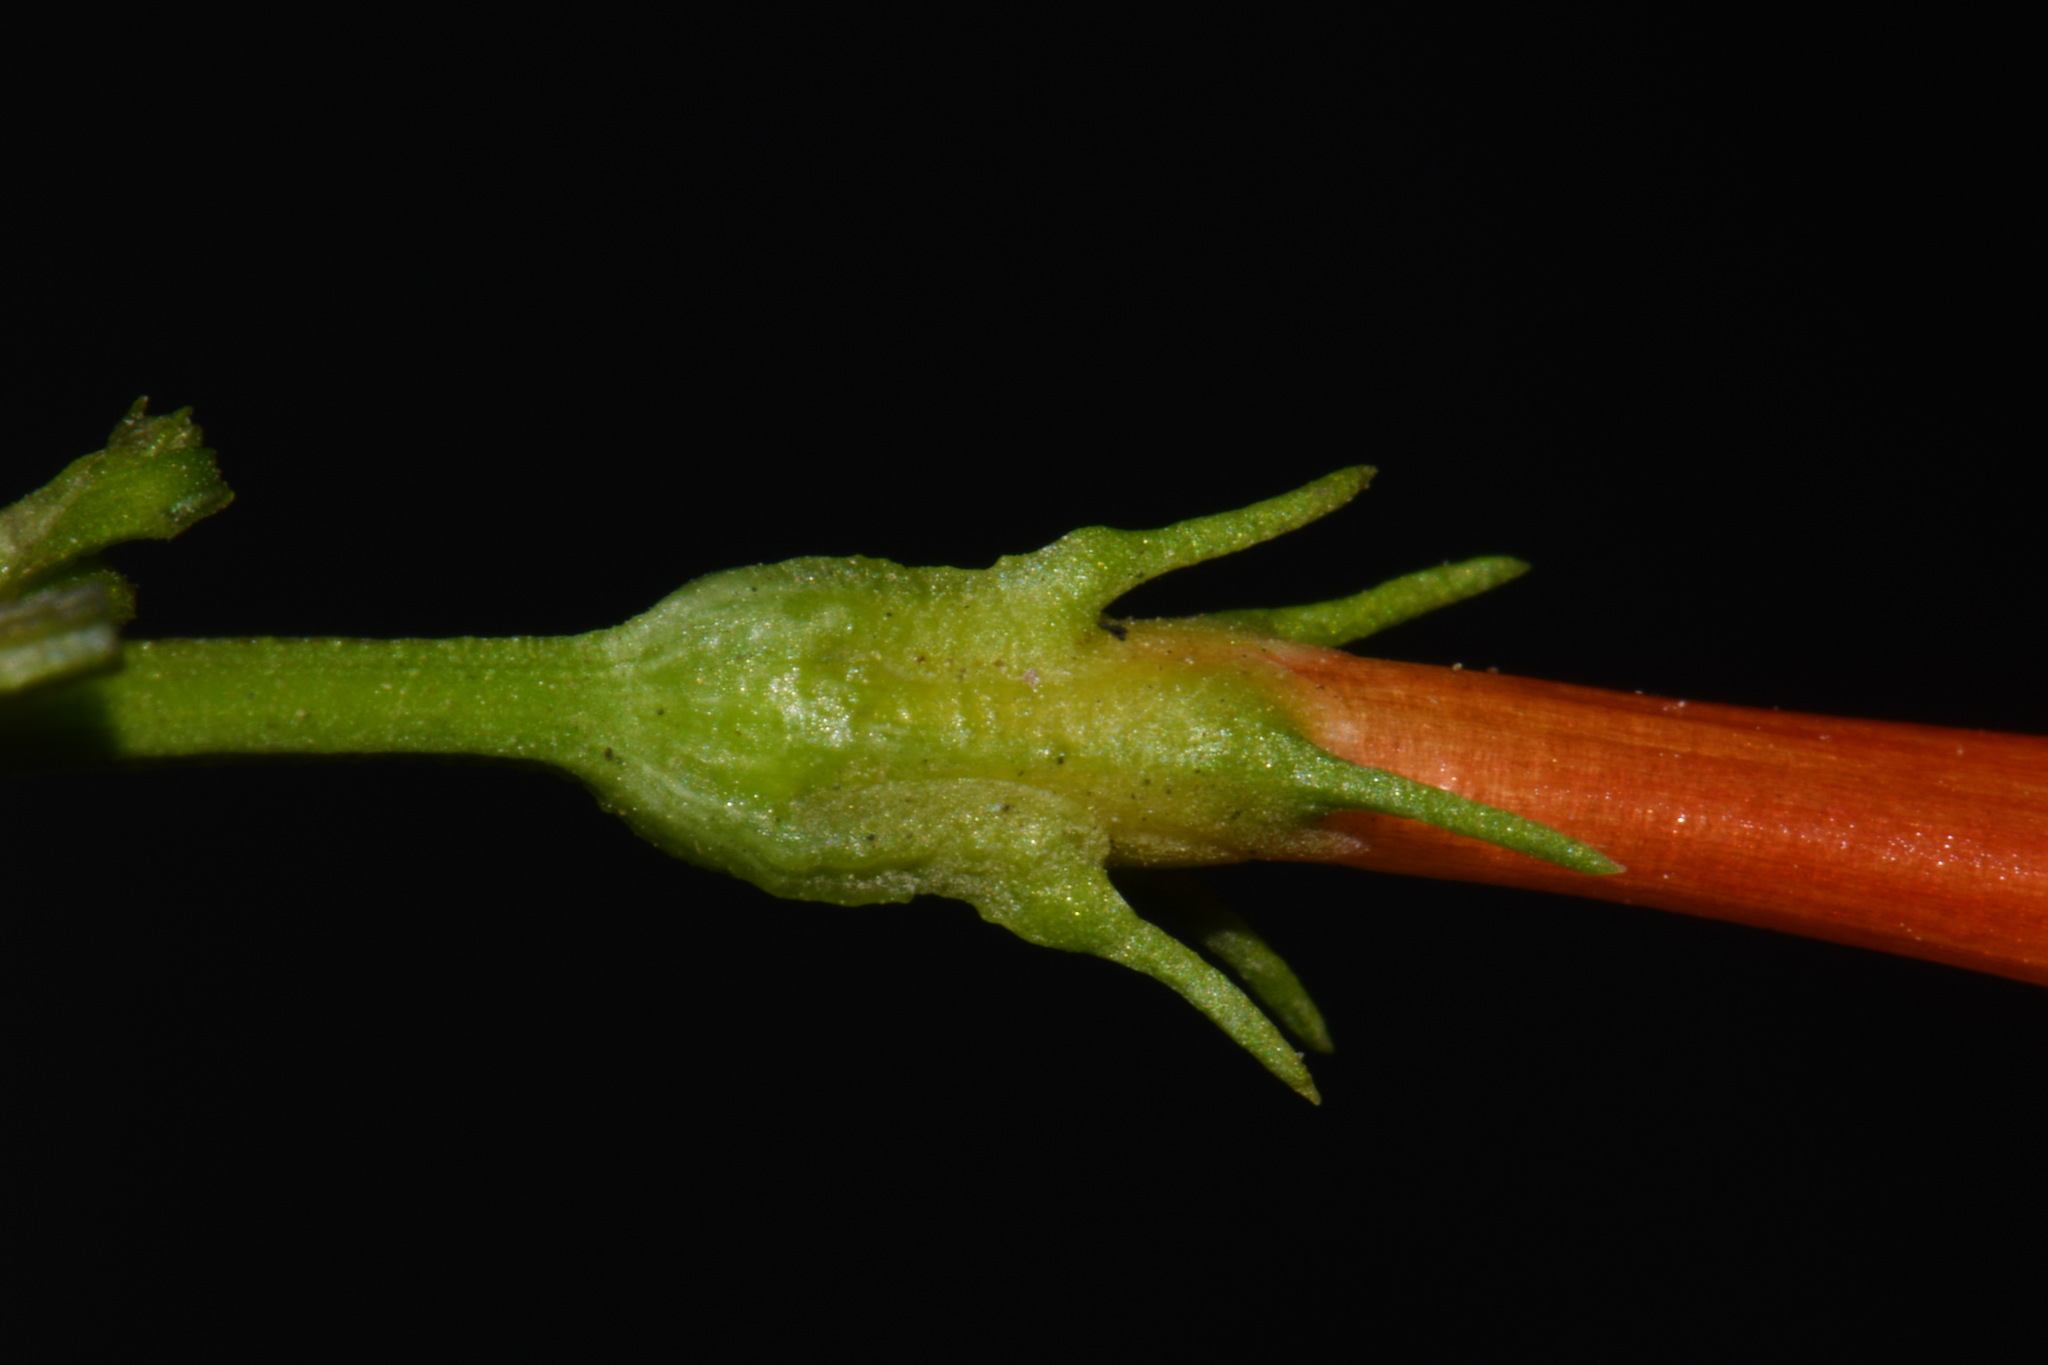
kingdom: Plantae
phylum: Tracheophyta
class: Magnoliopsida
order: Solanales
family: Convolvulaceae
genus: Ipomoea
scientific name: Ipomoea coccinea
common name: Red morning-glory
